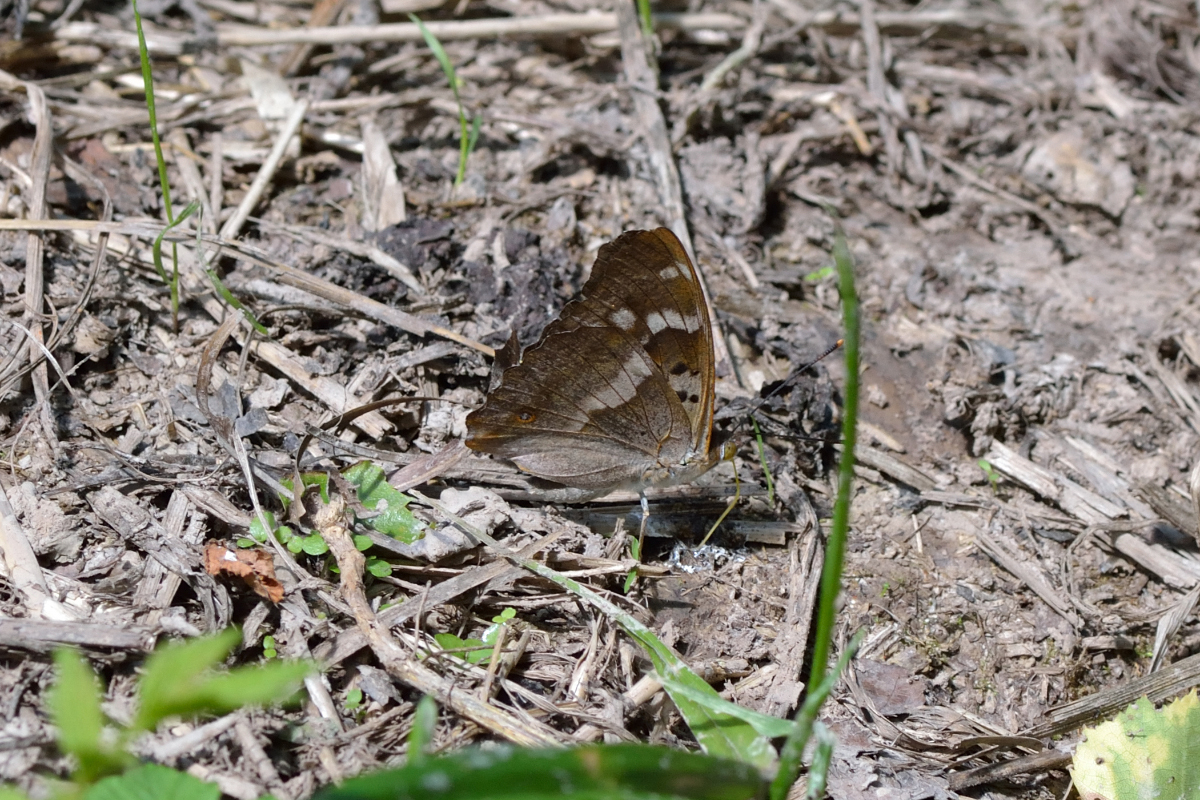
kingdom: Animalia
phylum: Arthropoda
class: Insecta
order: Lepidoptera
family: Nymphalidae
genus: Apatura
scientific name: Apatura ilia
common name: Lesser purple emperor
